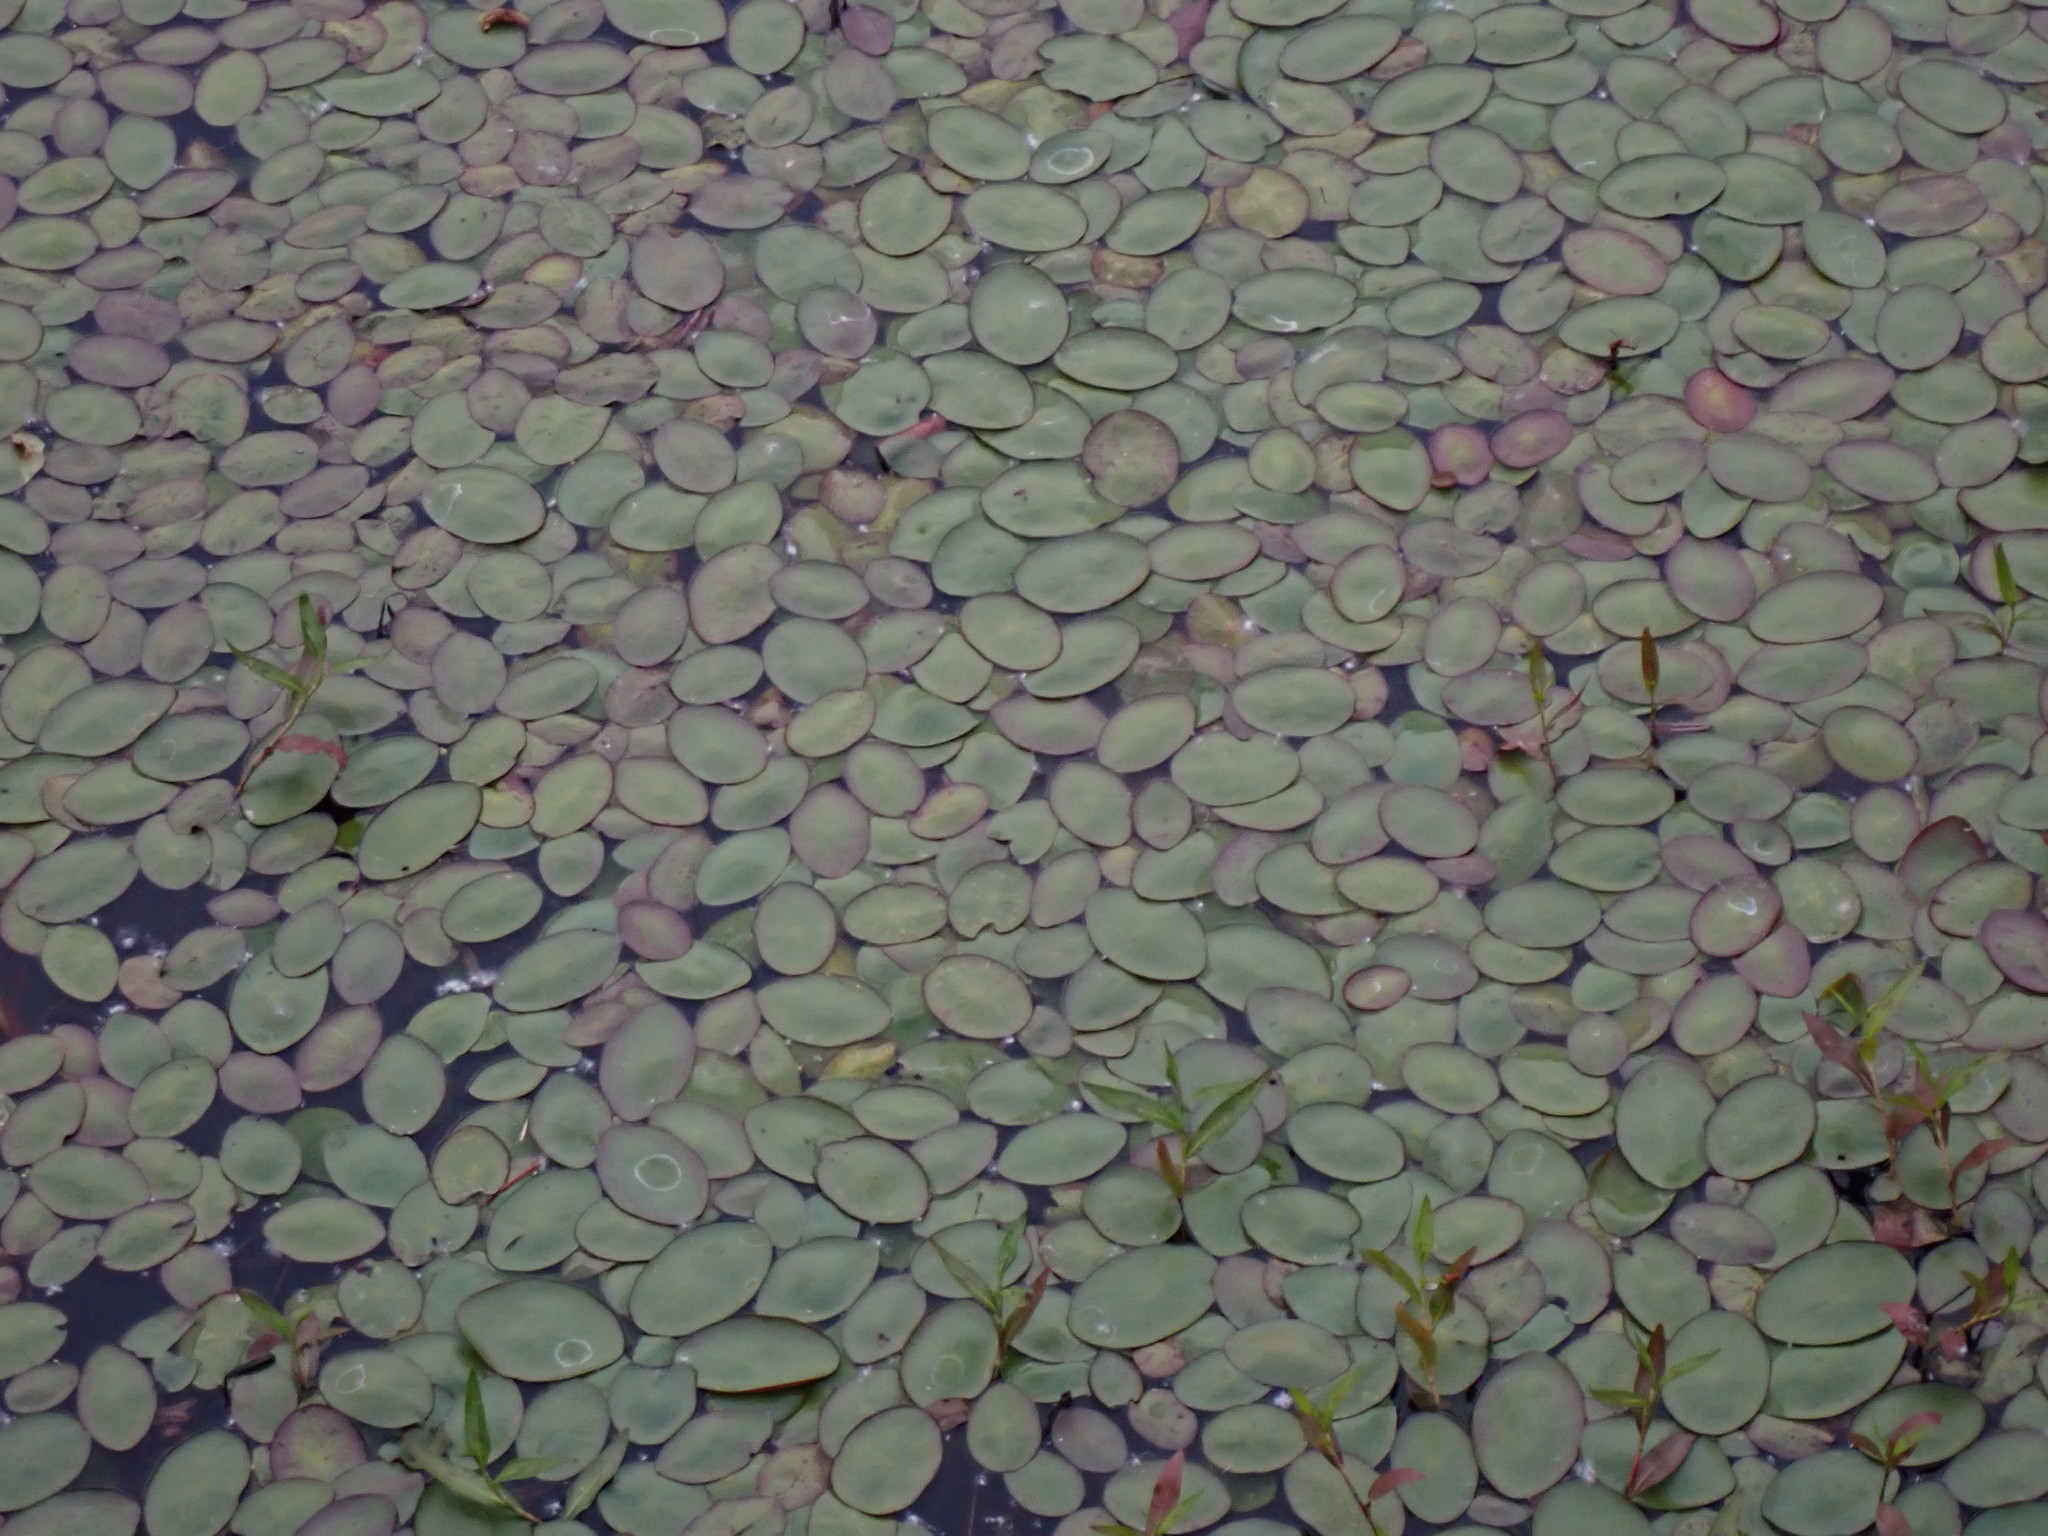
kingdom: Plantae
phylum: Tracheophyta
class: Magnoliopsida
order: Nymphaeales
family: Cabombaceae
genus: Brasenia
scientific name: Brasenia schreberi
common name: Water-shield
